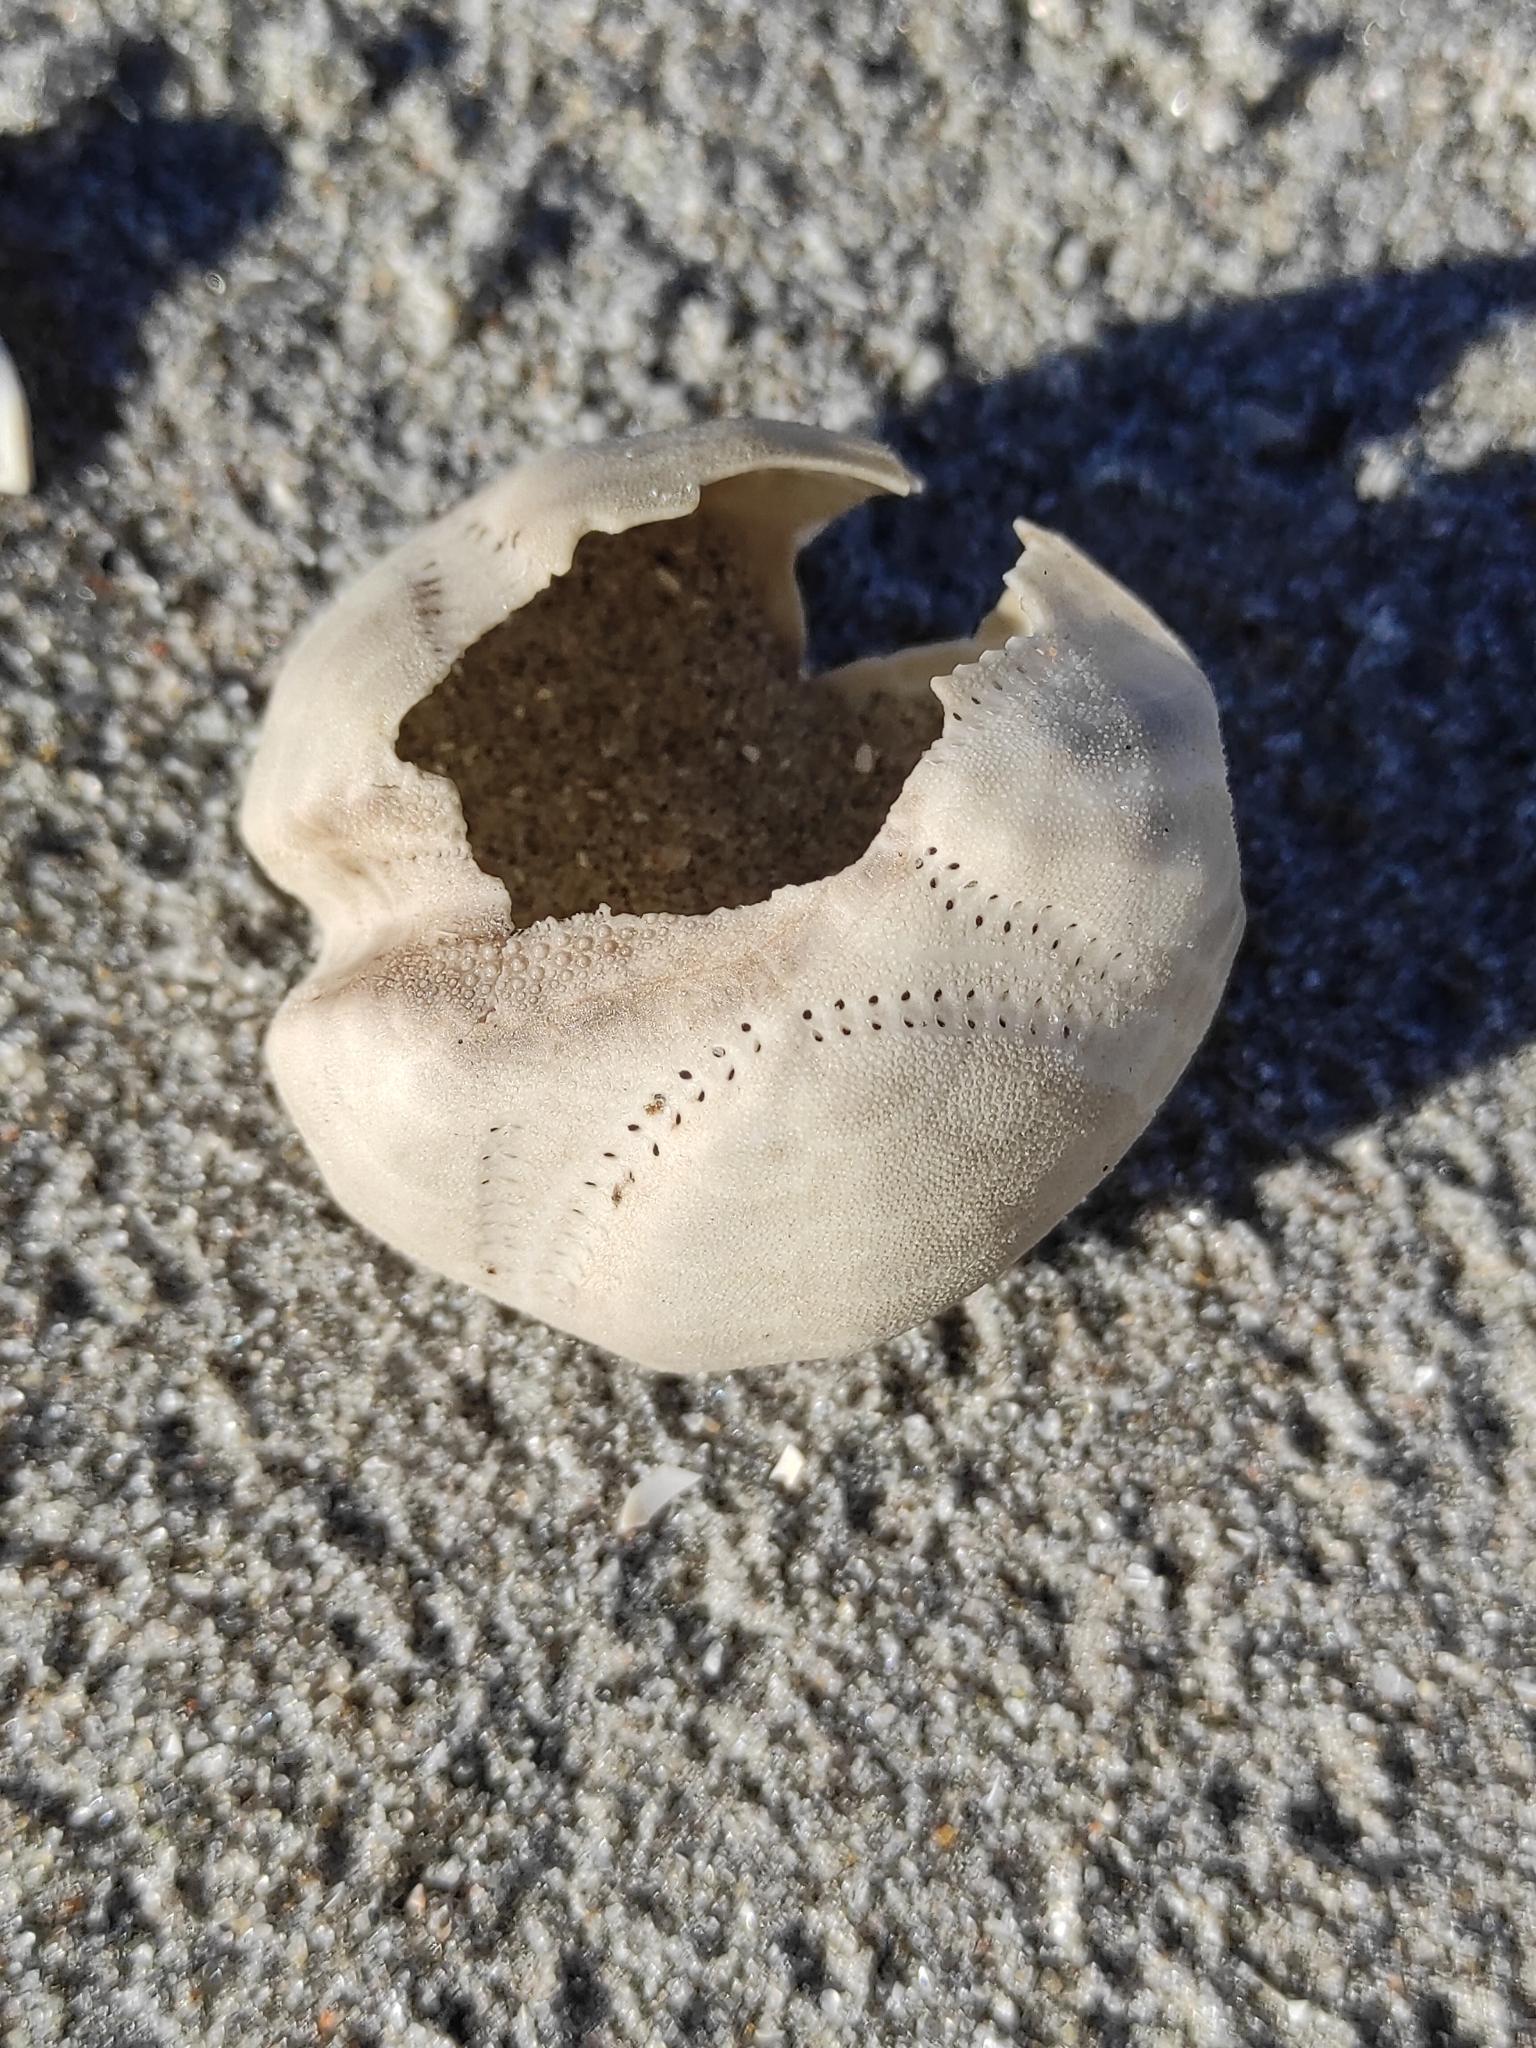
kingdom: Animalia
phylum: Echinodermata
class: Echinoidea
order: Spatangoida
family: Loveniidae
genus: Echinocardium
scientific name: Echinocardium cordatum
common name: Heart-urchin
